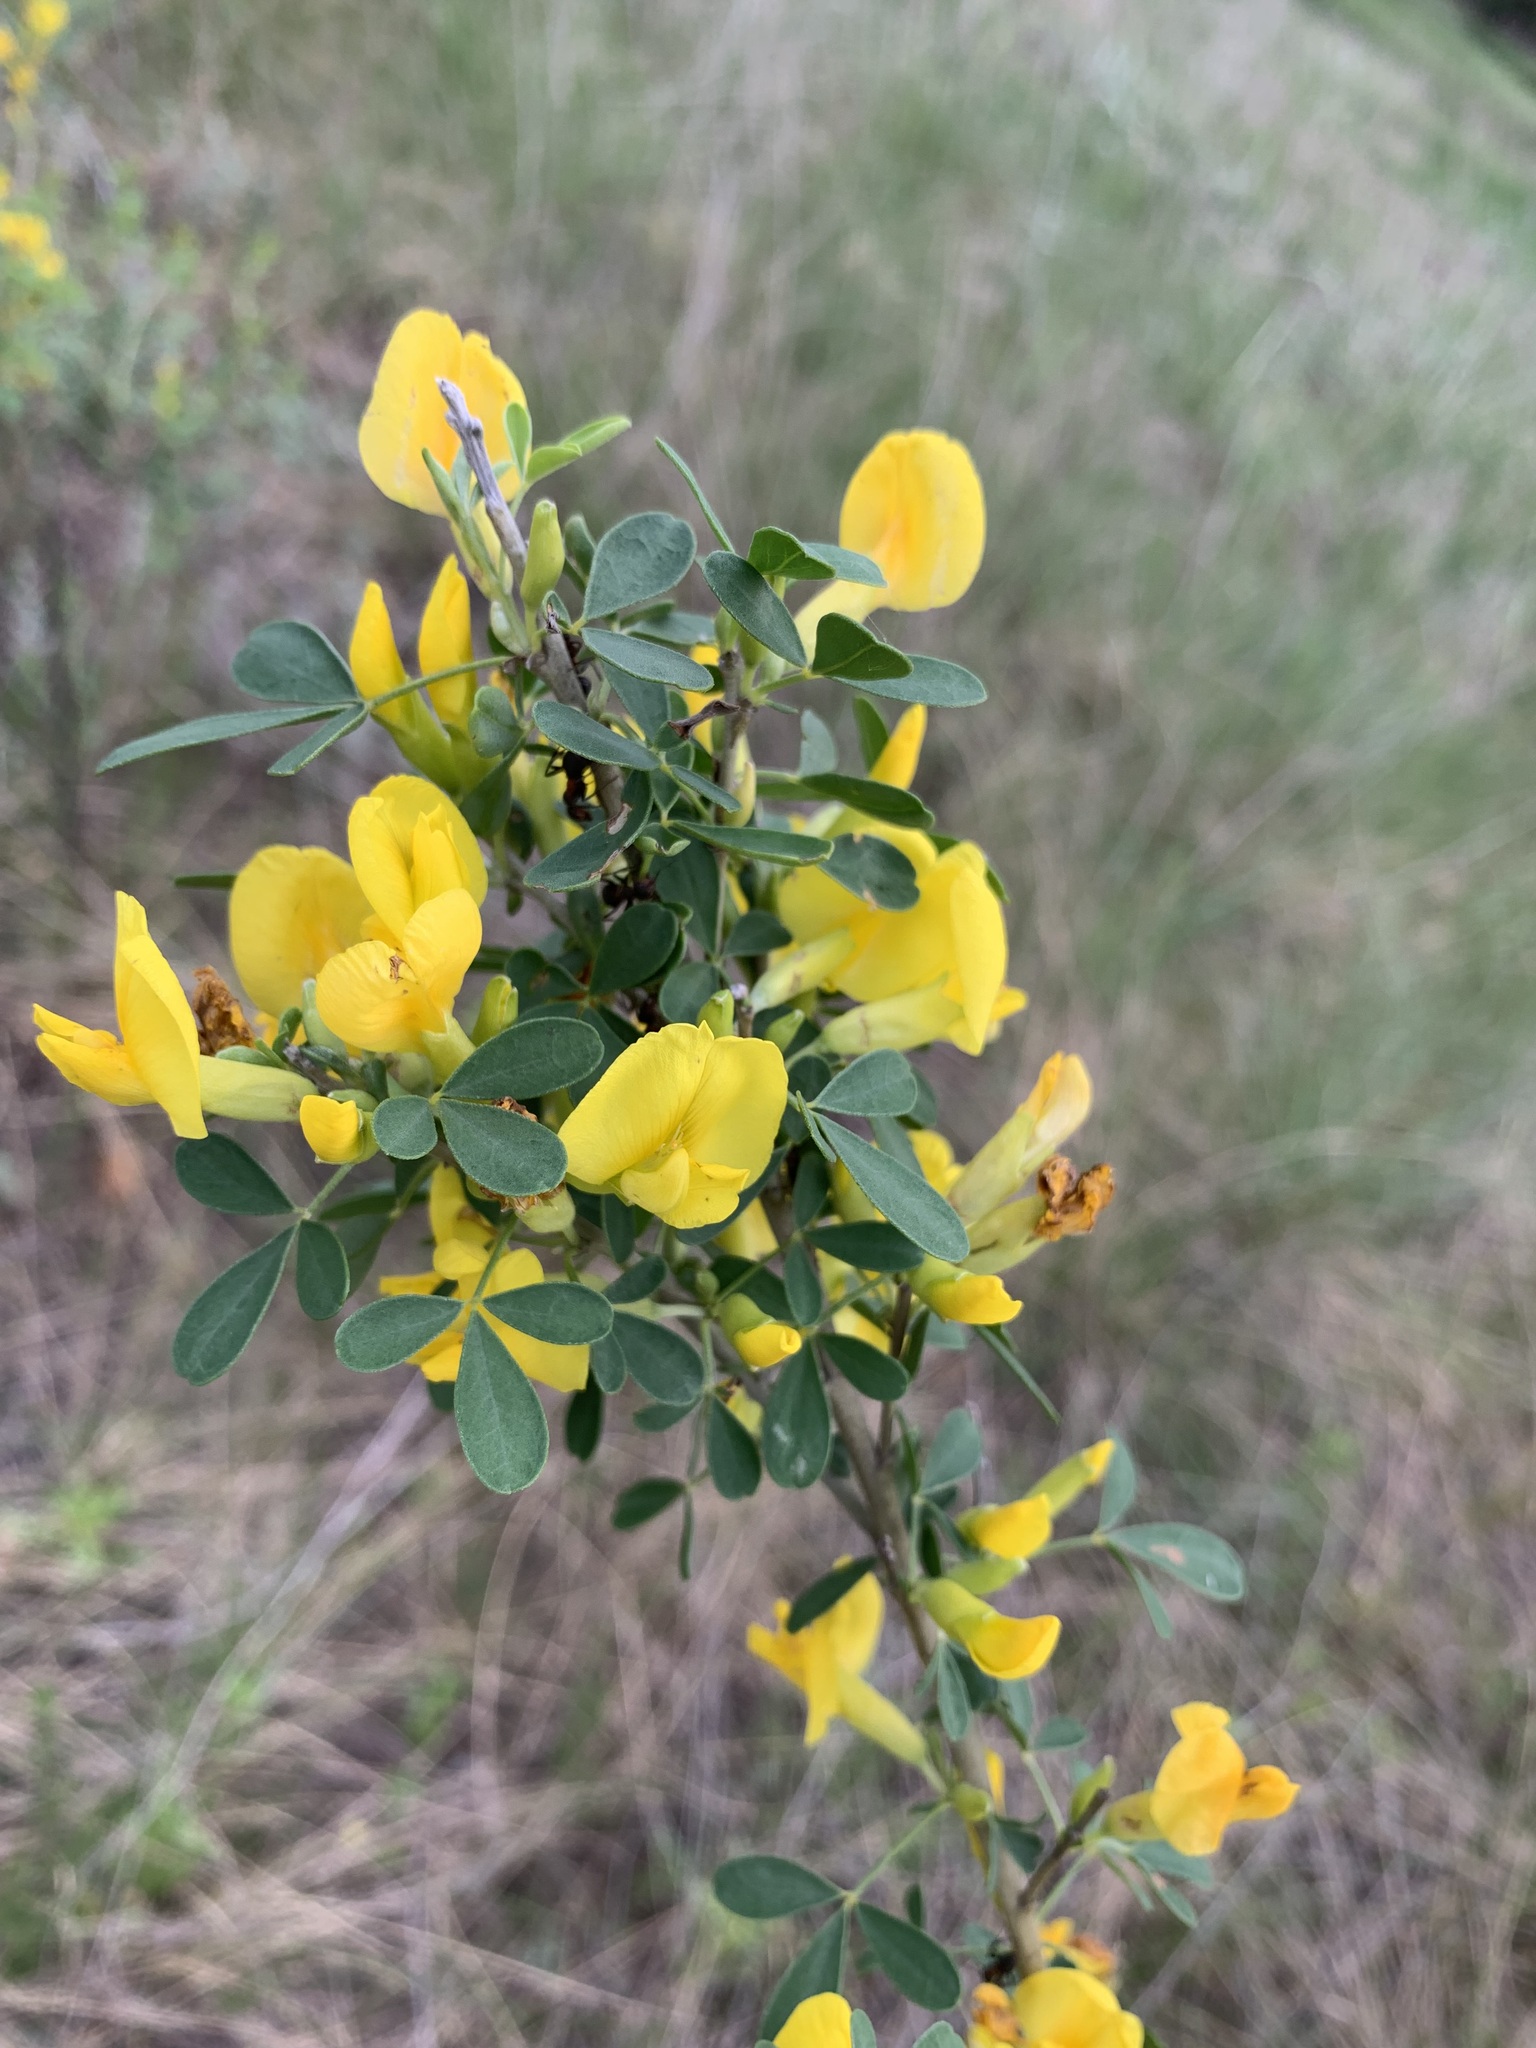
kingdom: Plantae
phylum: Tracheophyta
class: Magnoliopsida
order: Fabales
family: Fabaceae
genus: Chamaecytisus
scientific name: Chamaecytisus ruthenicus
